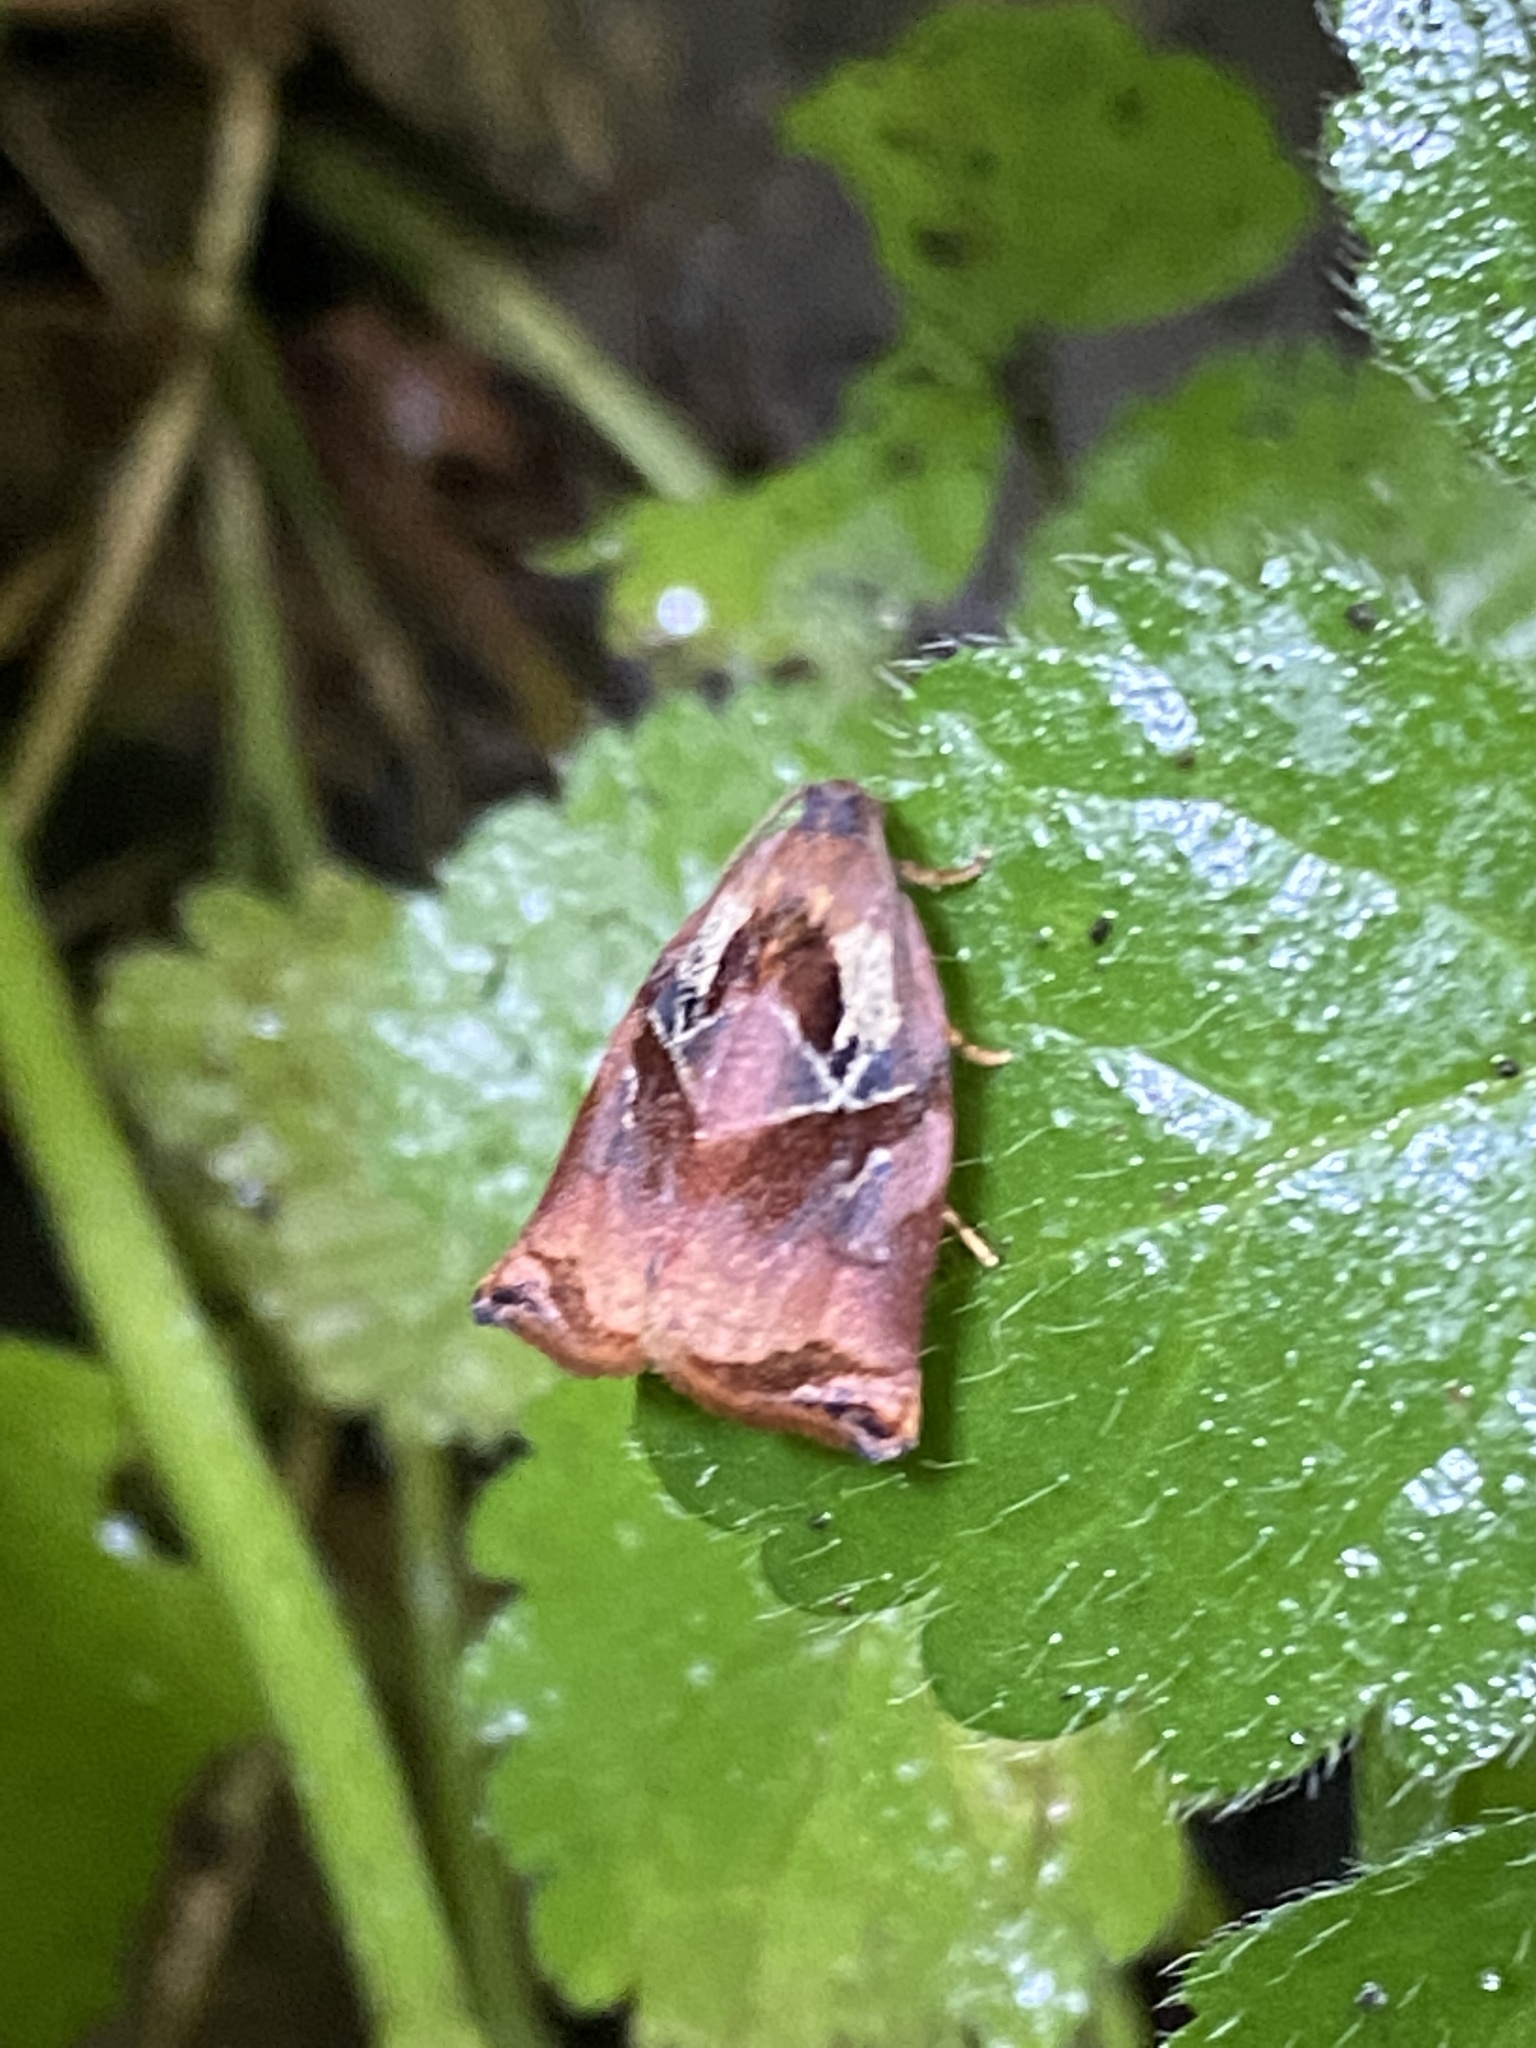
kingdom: Animalia
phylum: Arthropoda
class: Insecta
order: Lepidoptera
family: Tortricidae
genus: Archips
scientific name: Archips podana
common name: Large fruit-tree tortrix
